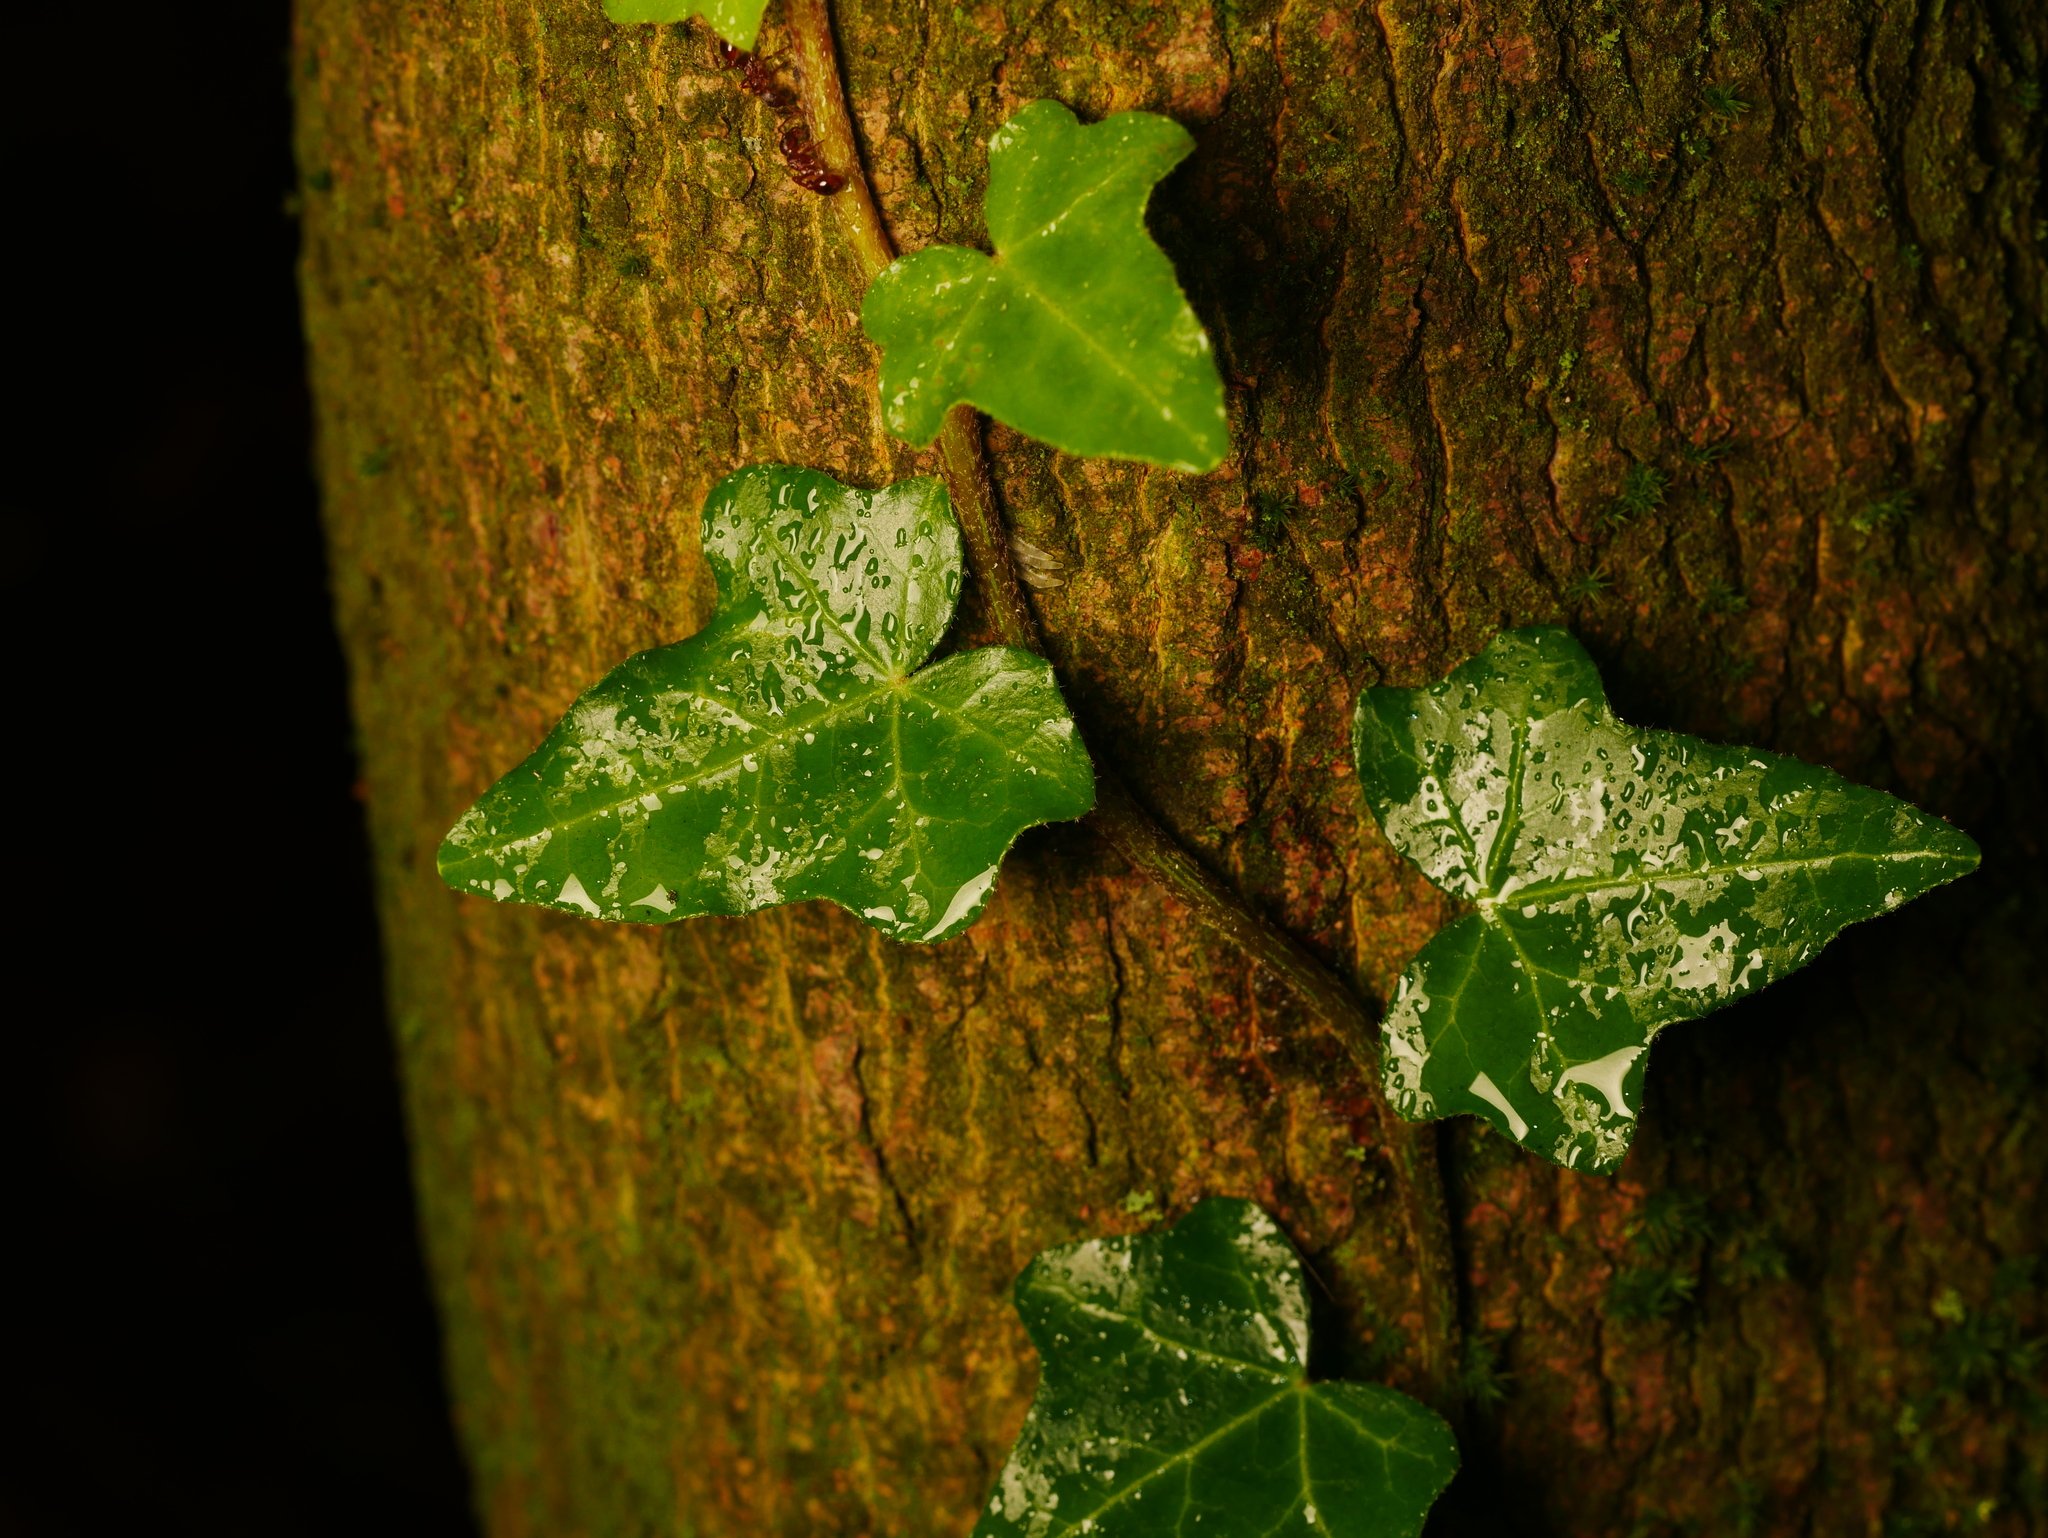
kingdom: Plantae
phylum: Tracheophyta
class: Magnoliopsida
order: Apiales
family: Araliaceae
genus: Hedera
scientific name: Hedera helix
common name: Ivy
